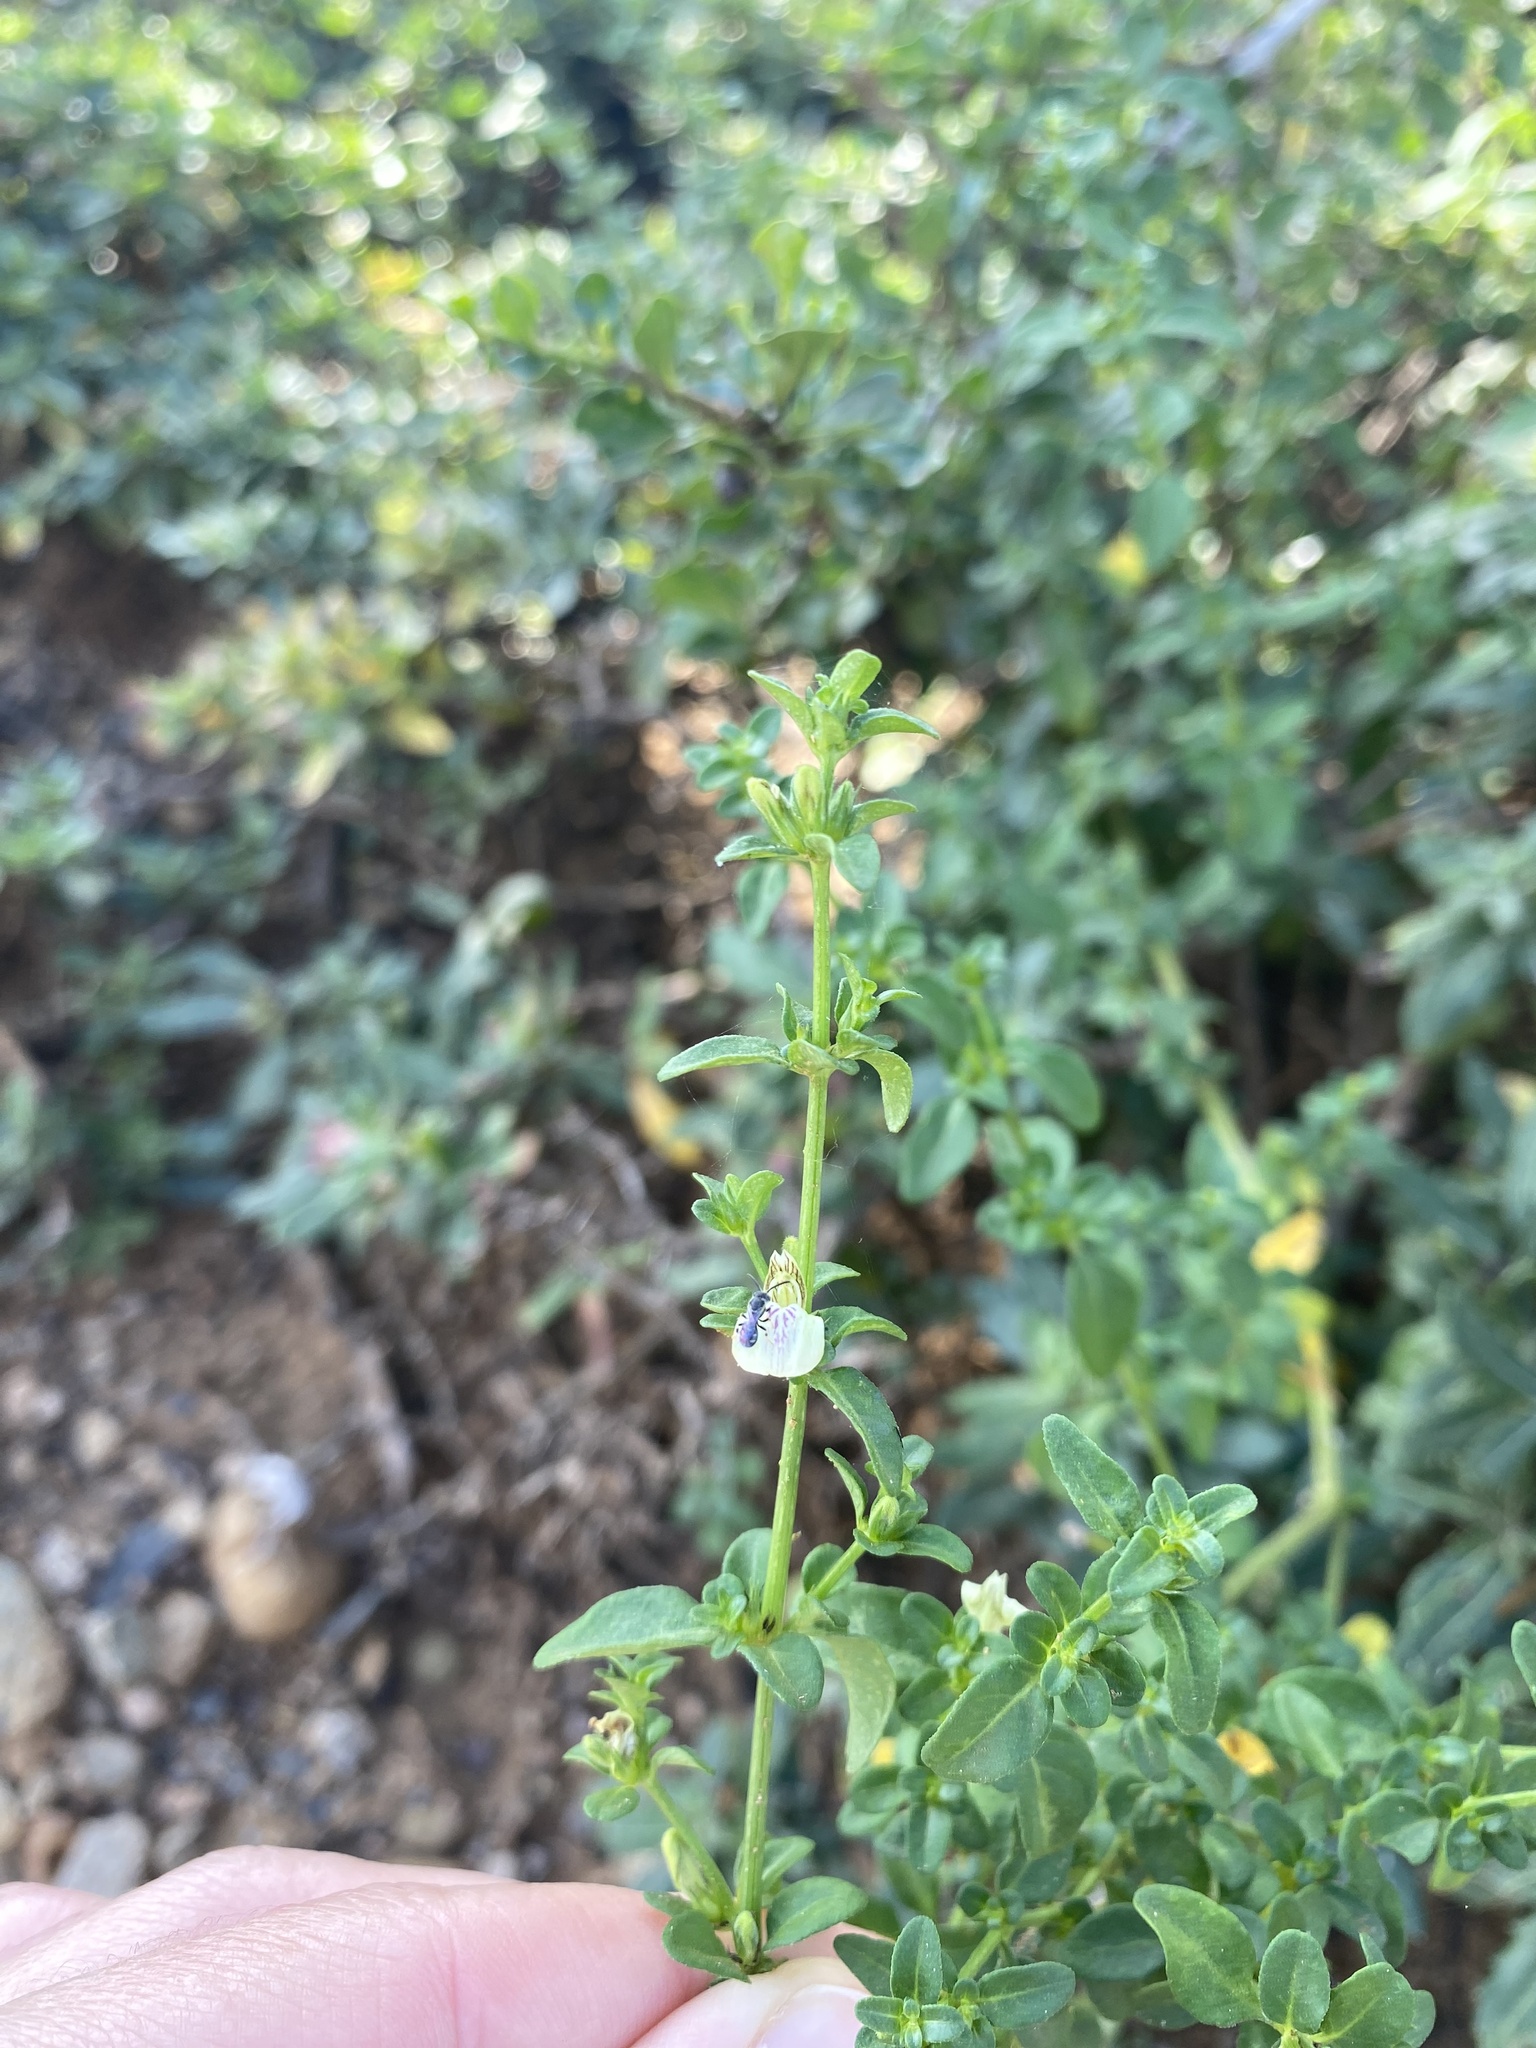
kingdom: Plantae
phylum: Tracheophyta
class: Magnoliopsida
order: Lamiales
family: Acanthaceae
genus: Justicia
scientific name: Justicia protracta
